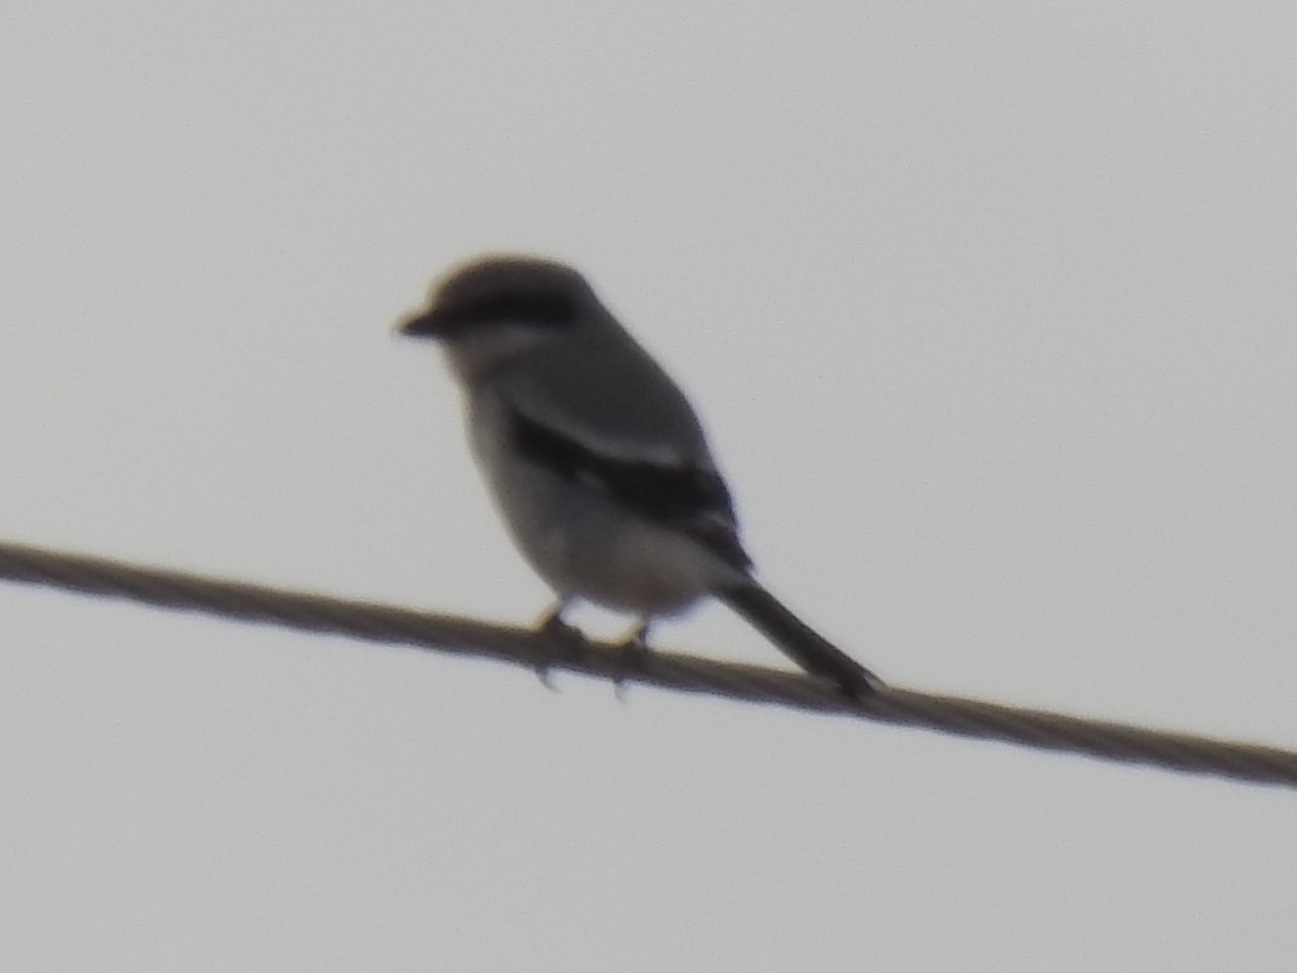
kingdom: Animalia
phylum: Chordata
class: Aves
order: Passeriformes
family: Laniidae
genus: Lanius
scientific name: Lanius ludovicianus
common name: Loggerhead shrike
